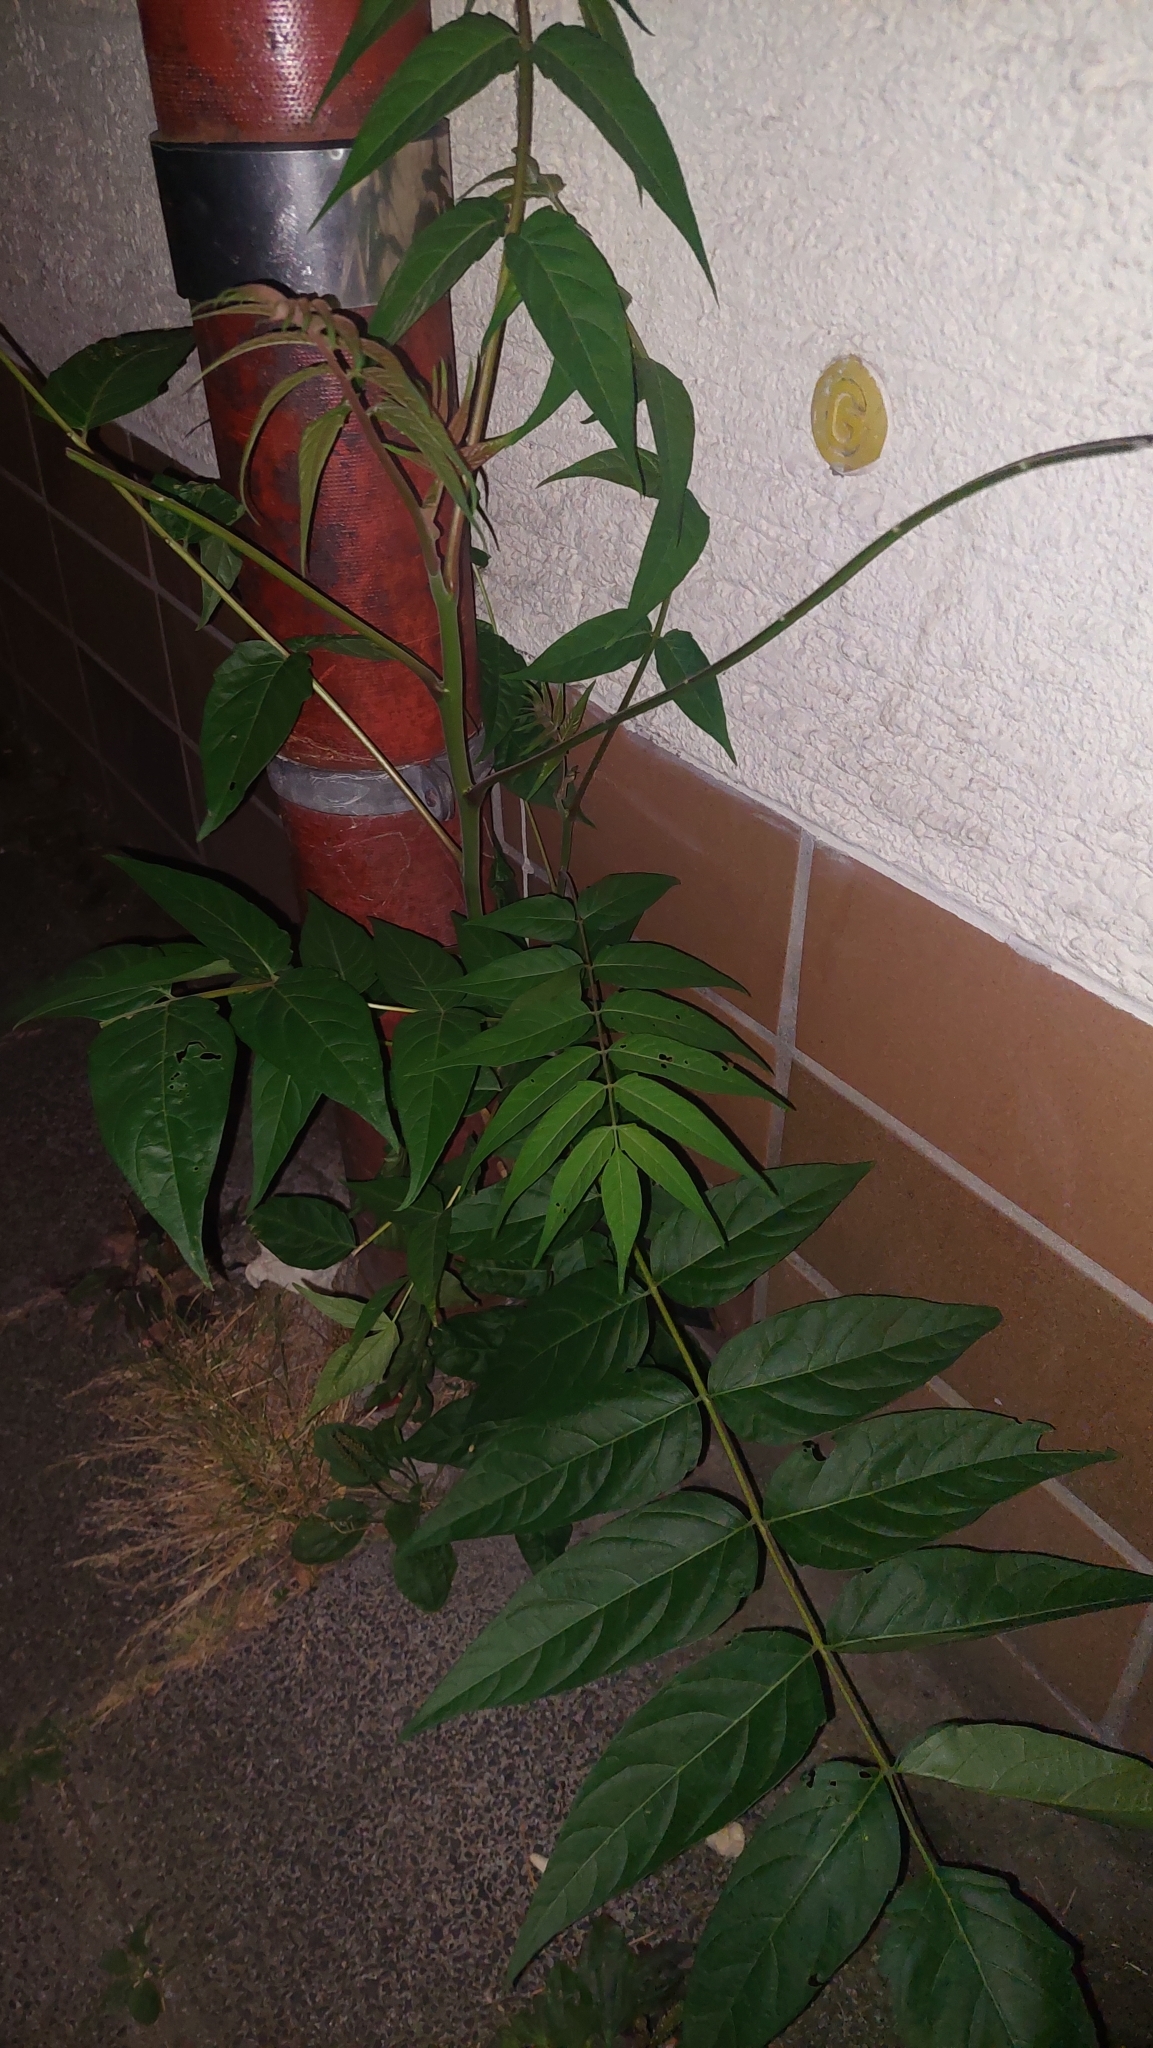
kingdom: Plantae
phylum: Tracheophyta
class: Magnoliopsida
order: Sapindales
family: Simaroubaceae
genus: Ailanthus
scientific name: Ailanthus altissima
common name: Tree-of-heaven
